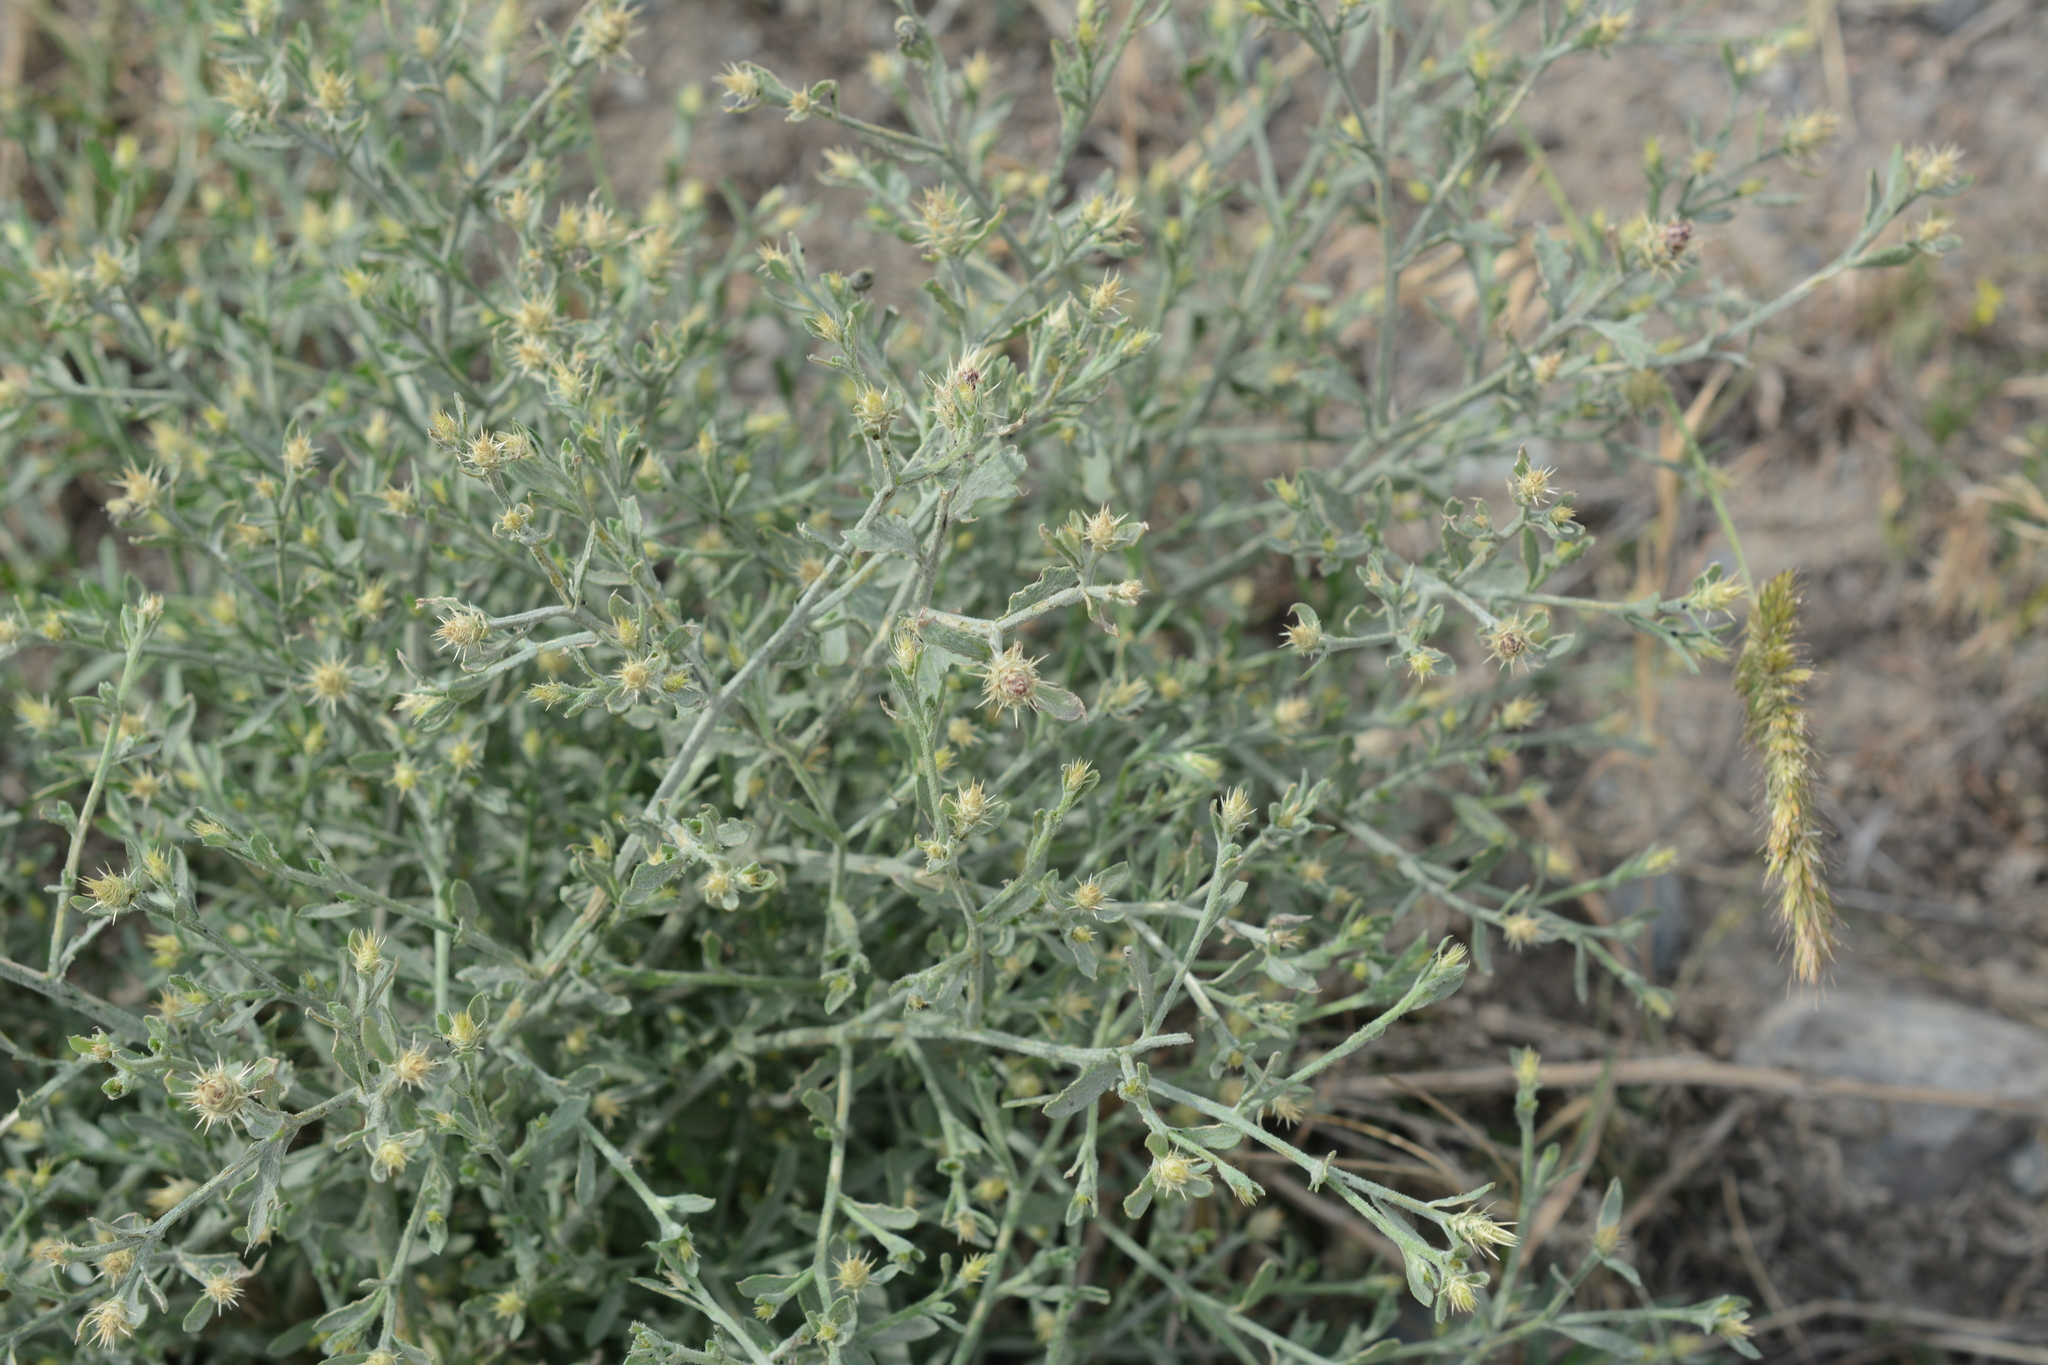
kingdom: Plantae
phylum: Tracheophyta
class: Magnoliopsida
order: Asterales
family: Asteraceae
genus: Centaurea
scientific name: Centaurea diffusa
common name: Diffuse knapweed
